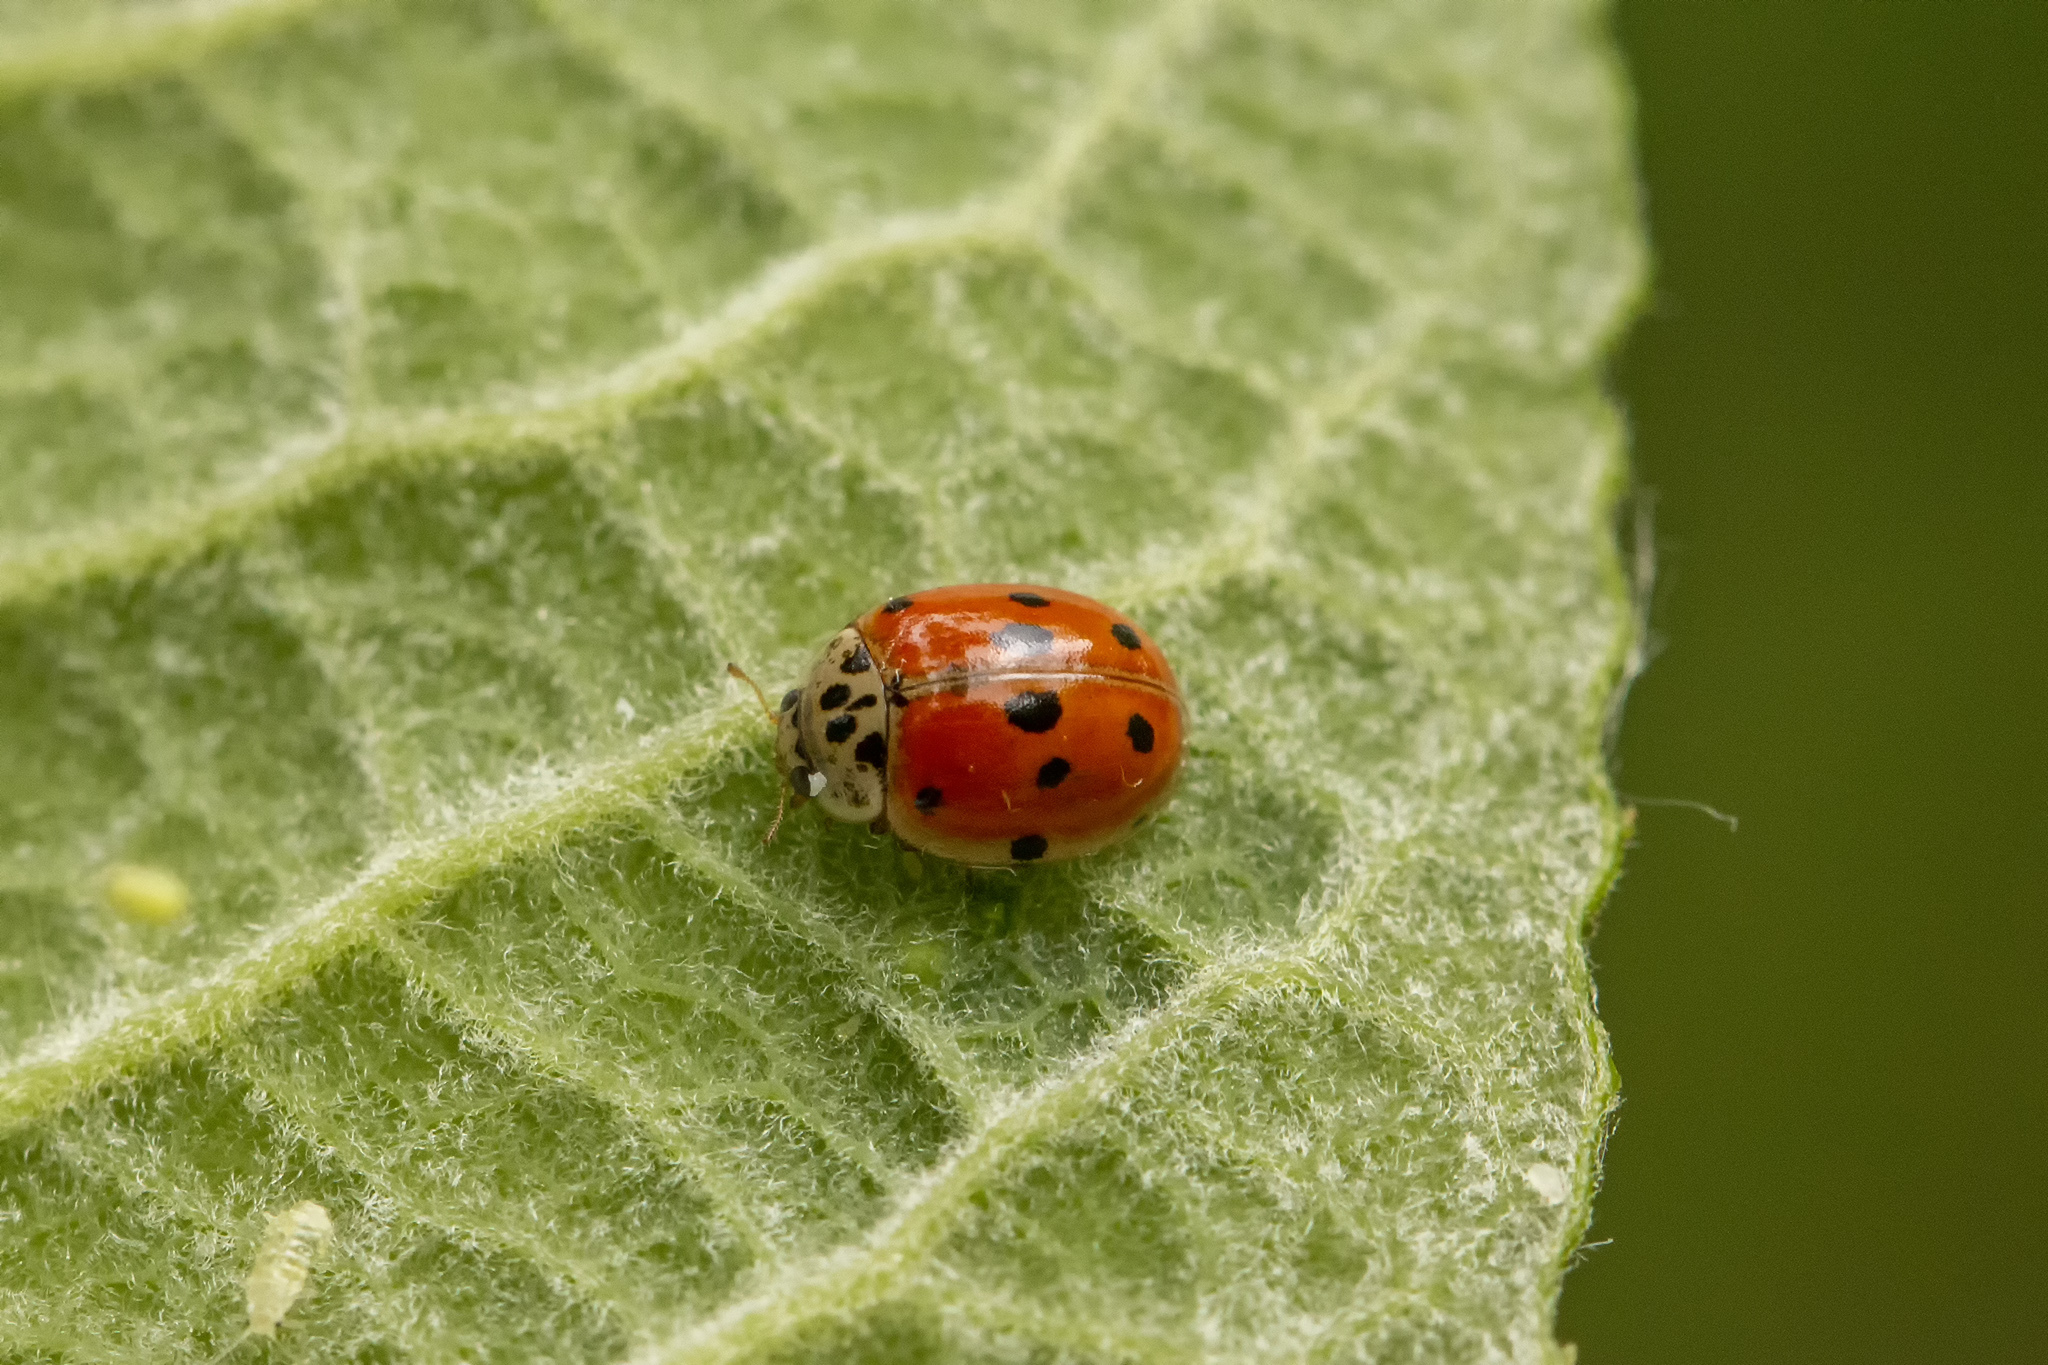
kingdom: Animalia
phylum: Arthropoda
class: Insecta
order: Coleoptera
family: Coccinellidae
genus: Adalia
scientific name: Adalia decempunctata
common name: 10-spot ladybird
